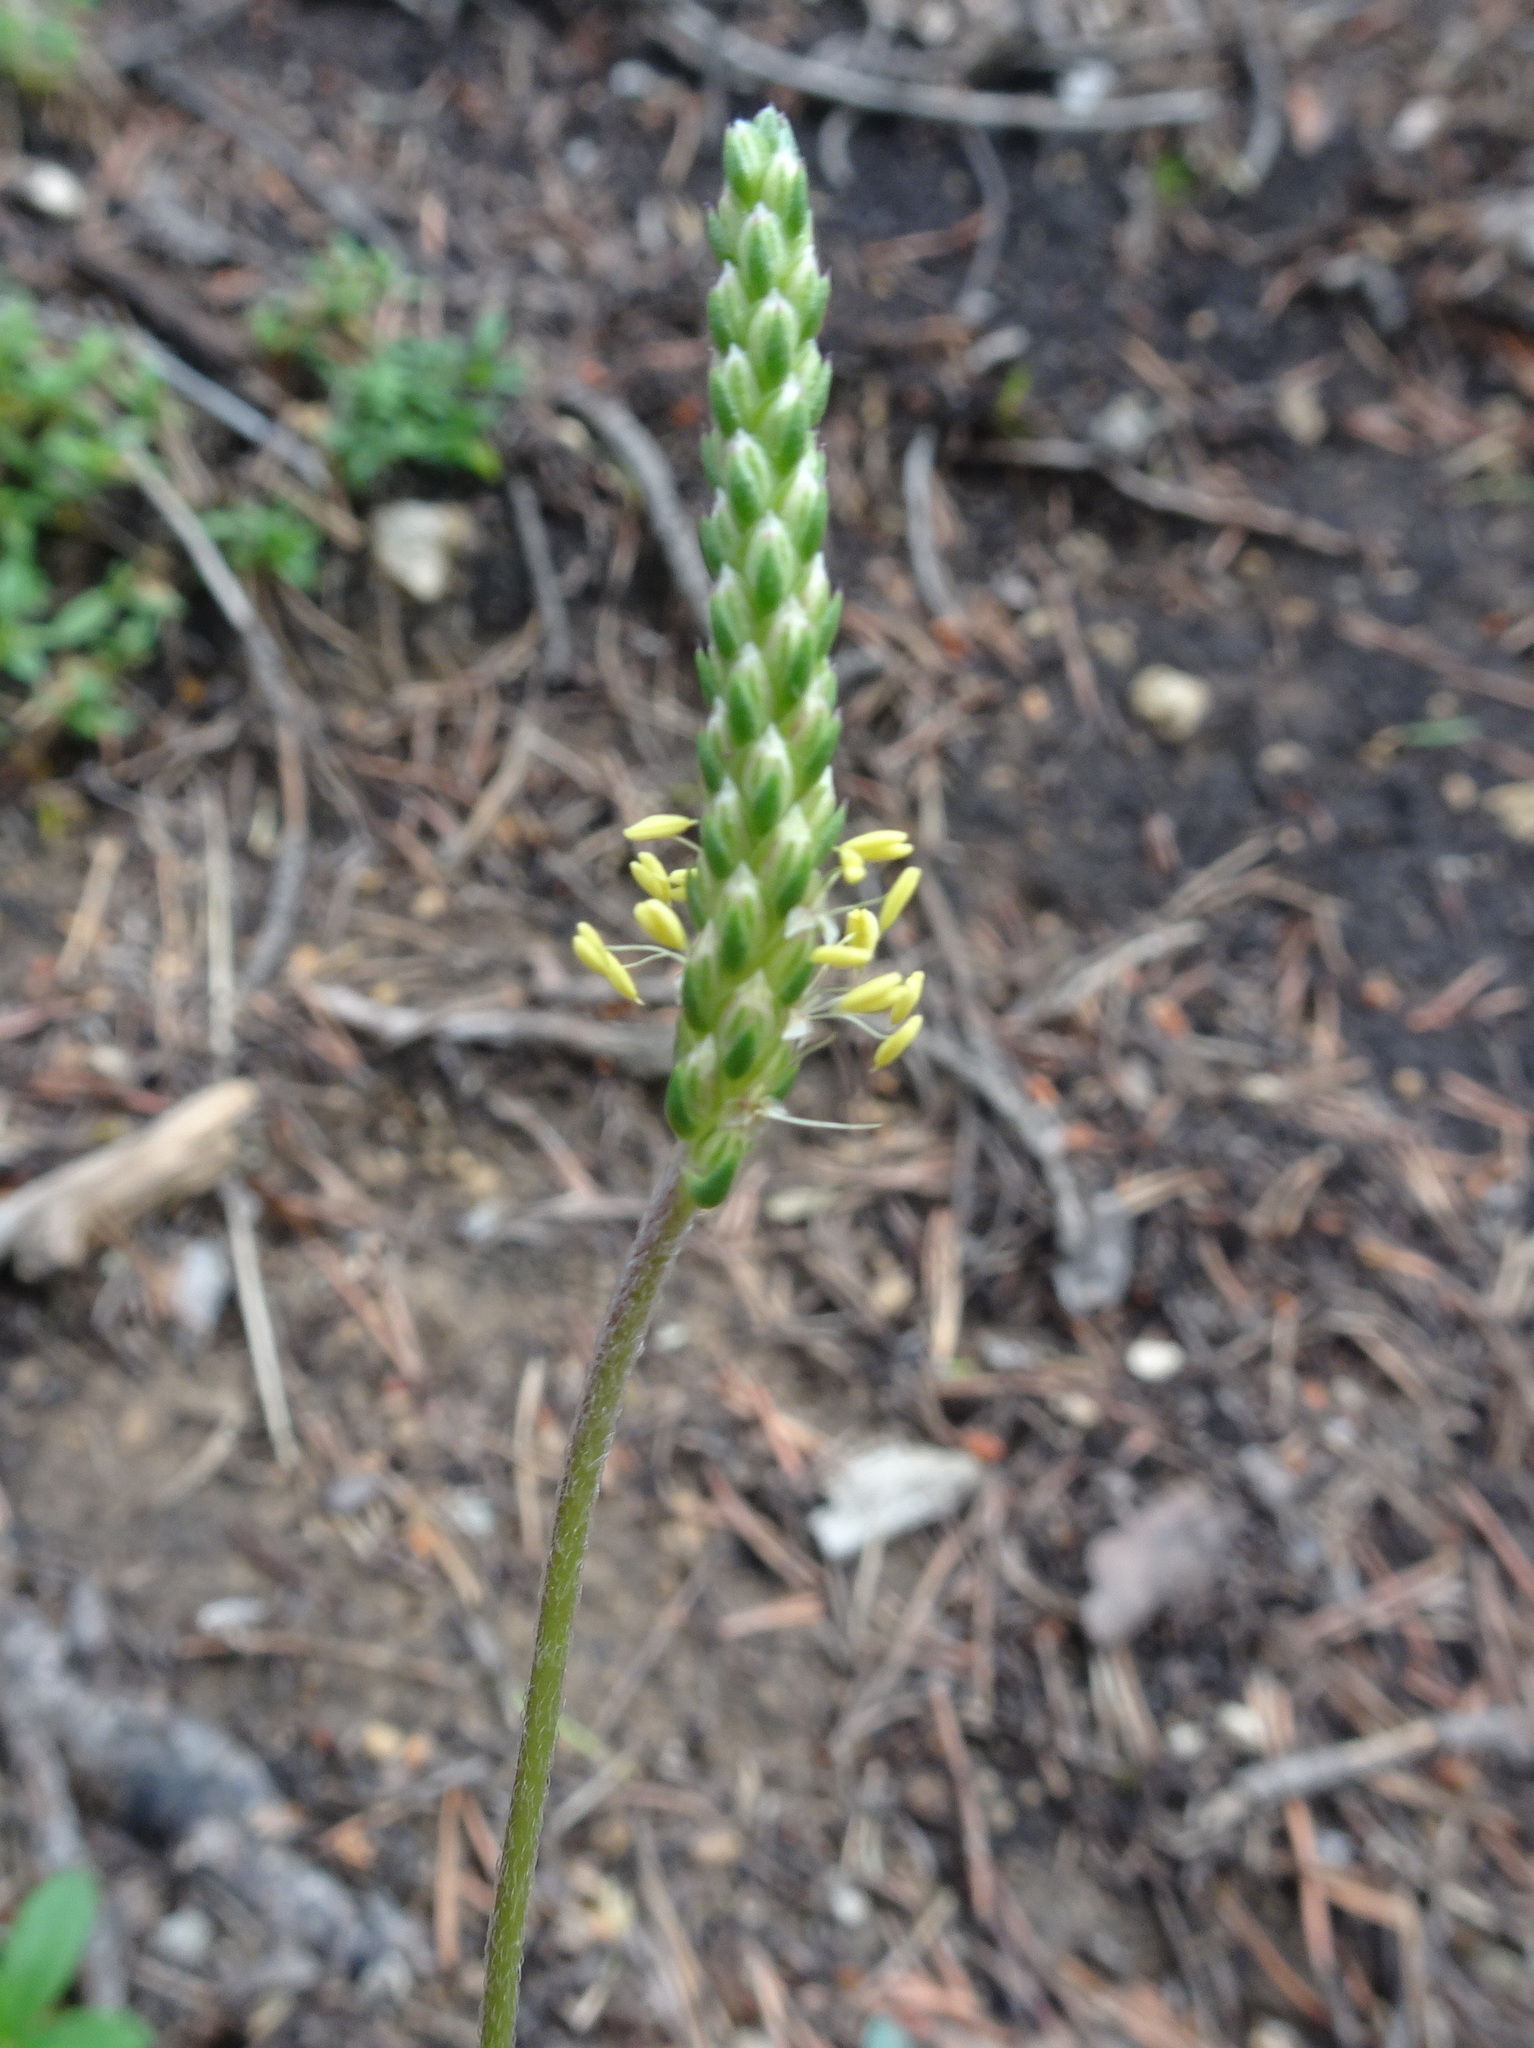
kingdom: Plantae
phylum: Tracheophyta
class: Magnoliopsida
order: Lamiales
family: Plantaginaceae
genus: Plantago
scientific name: Plantago maritima
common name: Sea plantain
